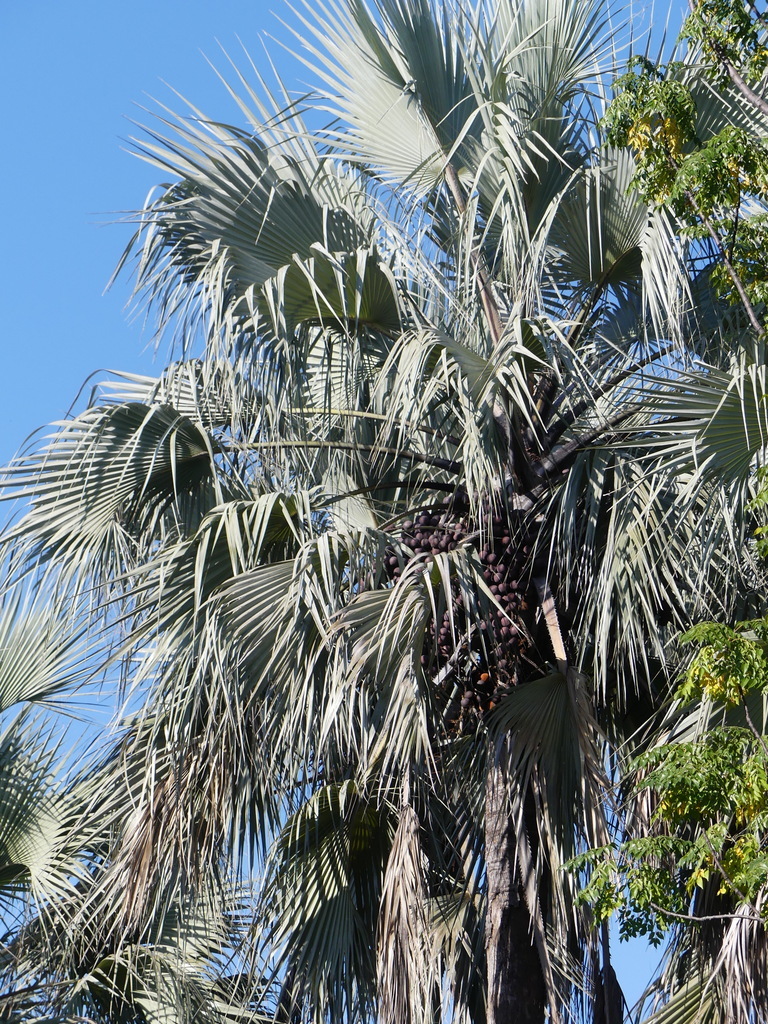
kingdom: Plantae
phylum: Tracheophyta
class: Liliopsida
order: Arecales
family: Arecaceae
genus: Hyphaene
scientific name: Hyphaene petersiana
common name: African ivory nut palm
